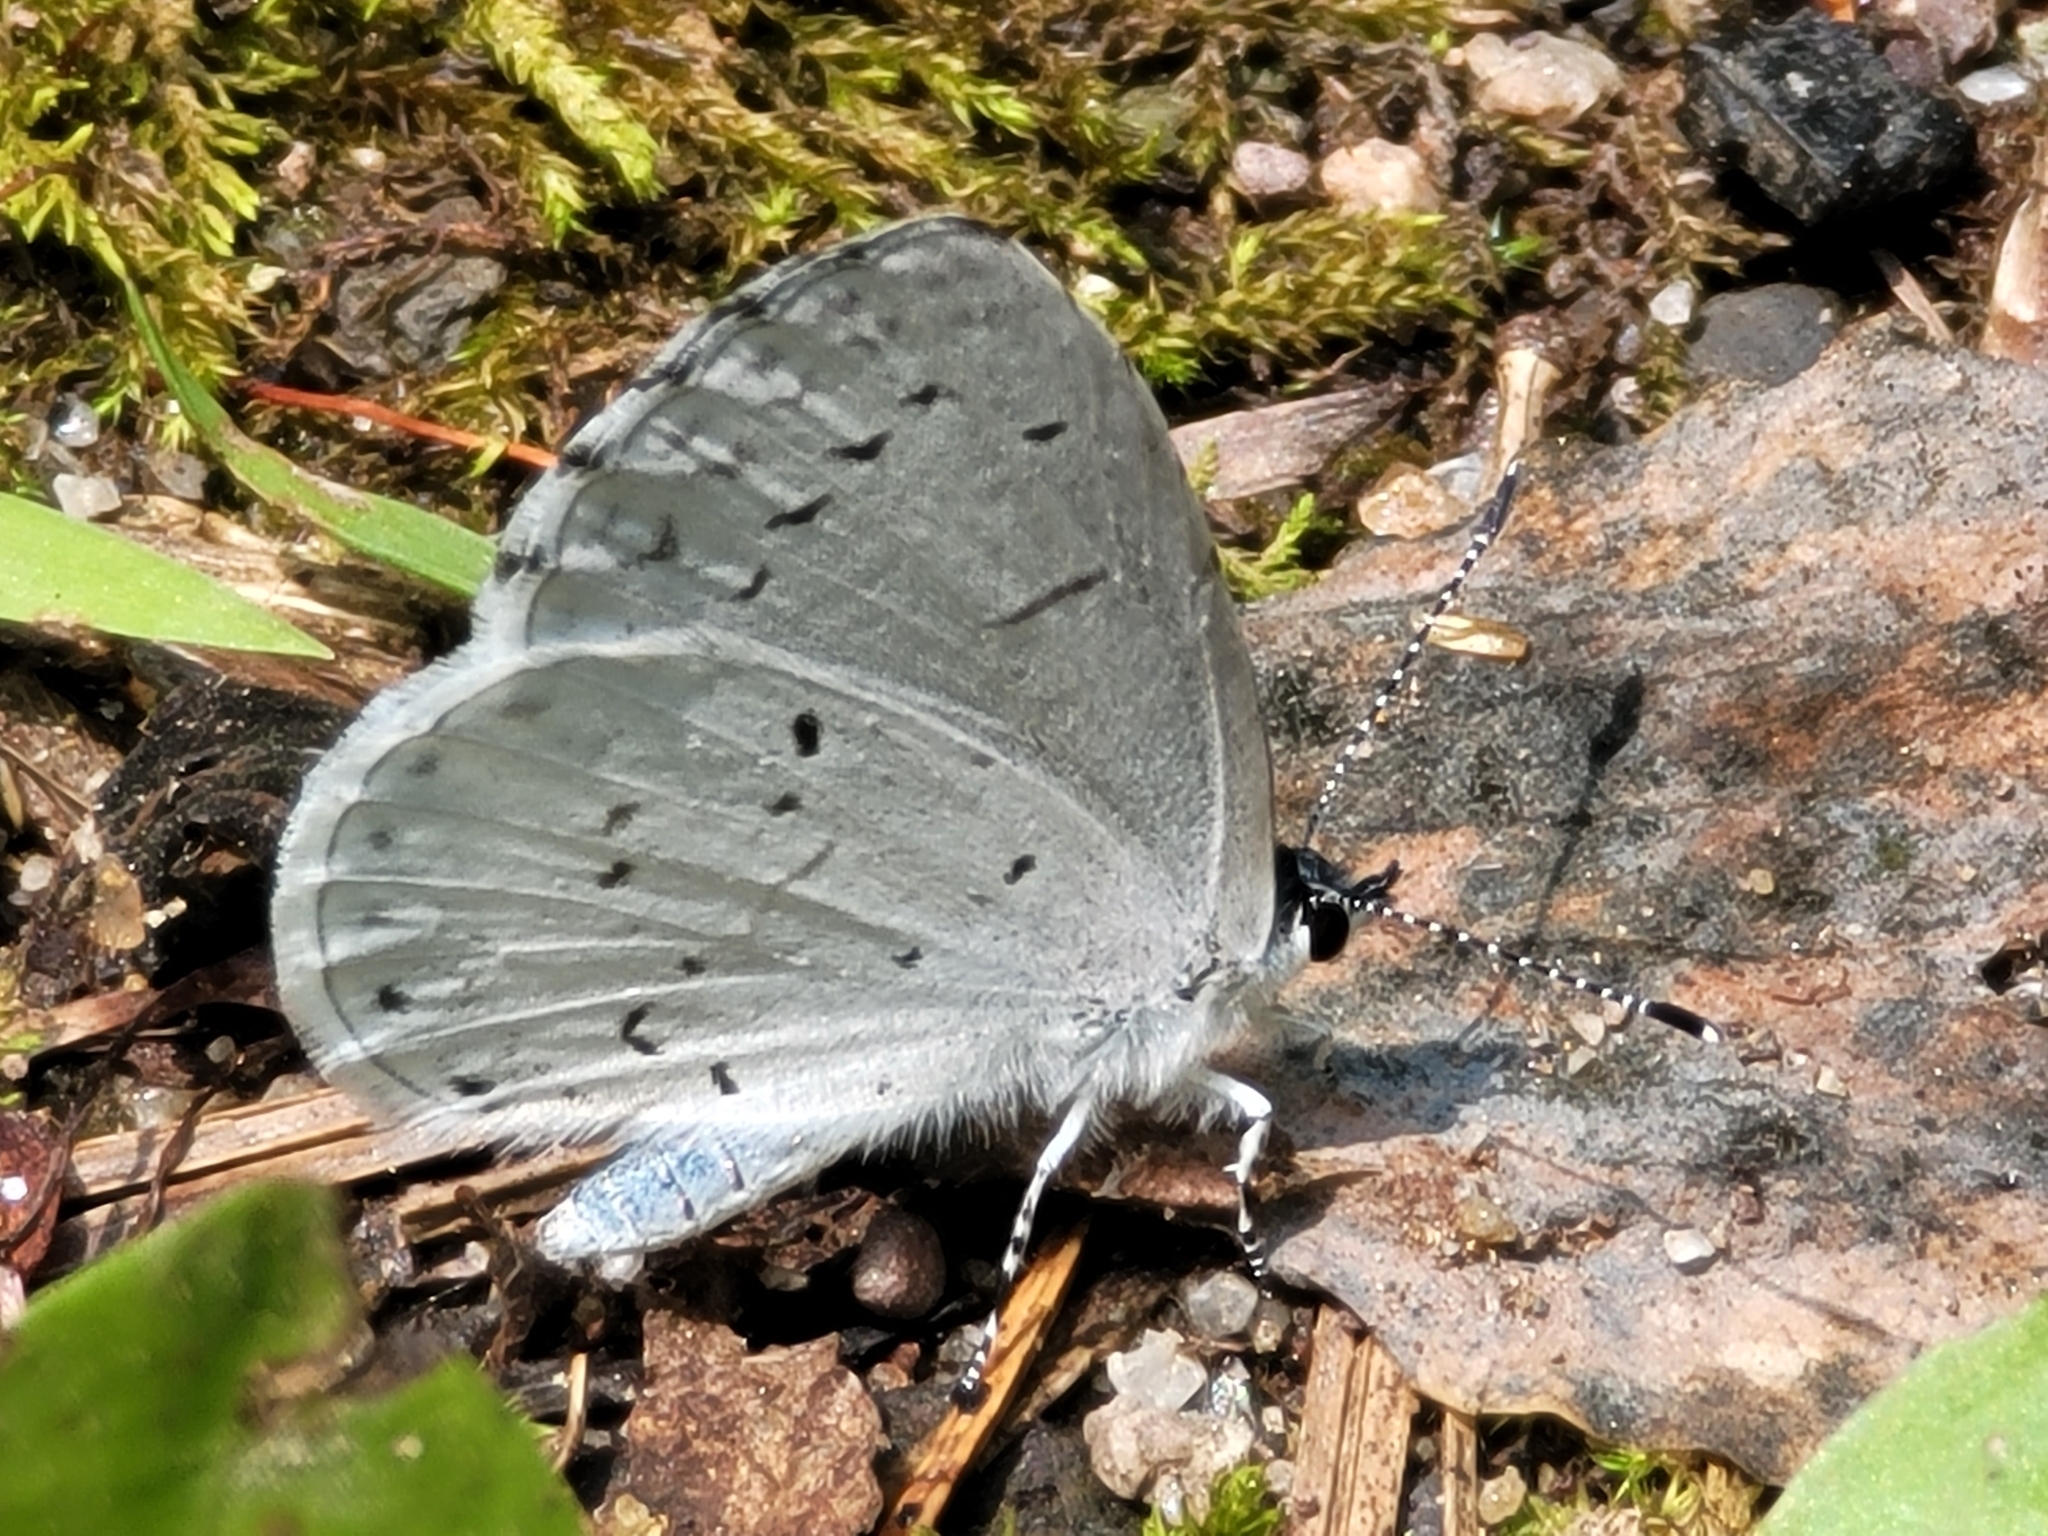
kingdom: Animalia
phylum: Arthropoda
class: Insecta
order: Lepidoptera
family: Lycaenidae
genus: Cyaniris
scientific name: Cyaniris neglecta
